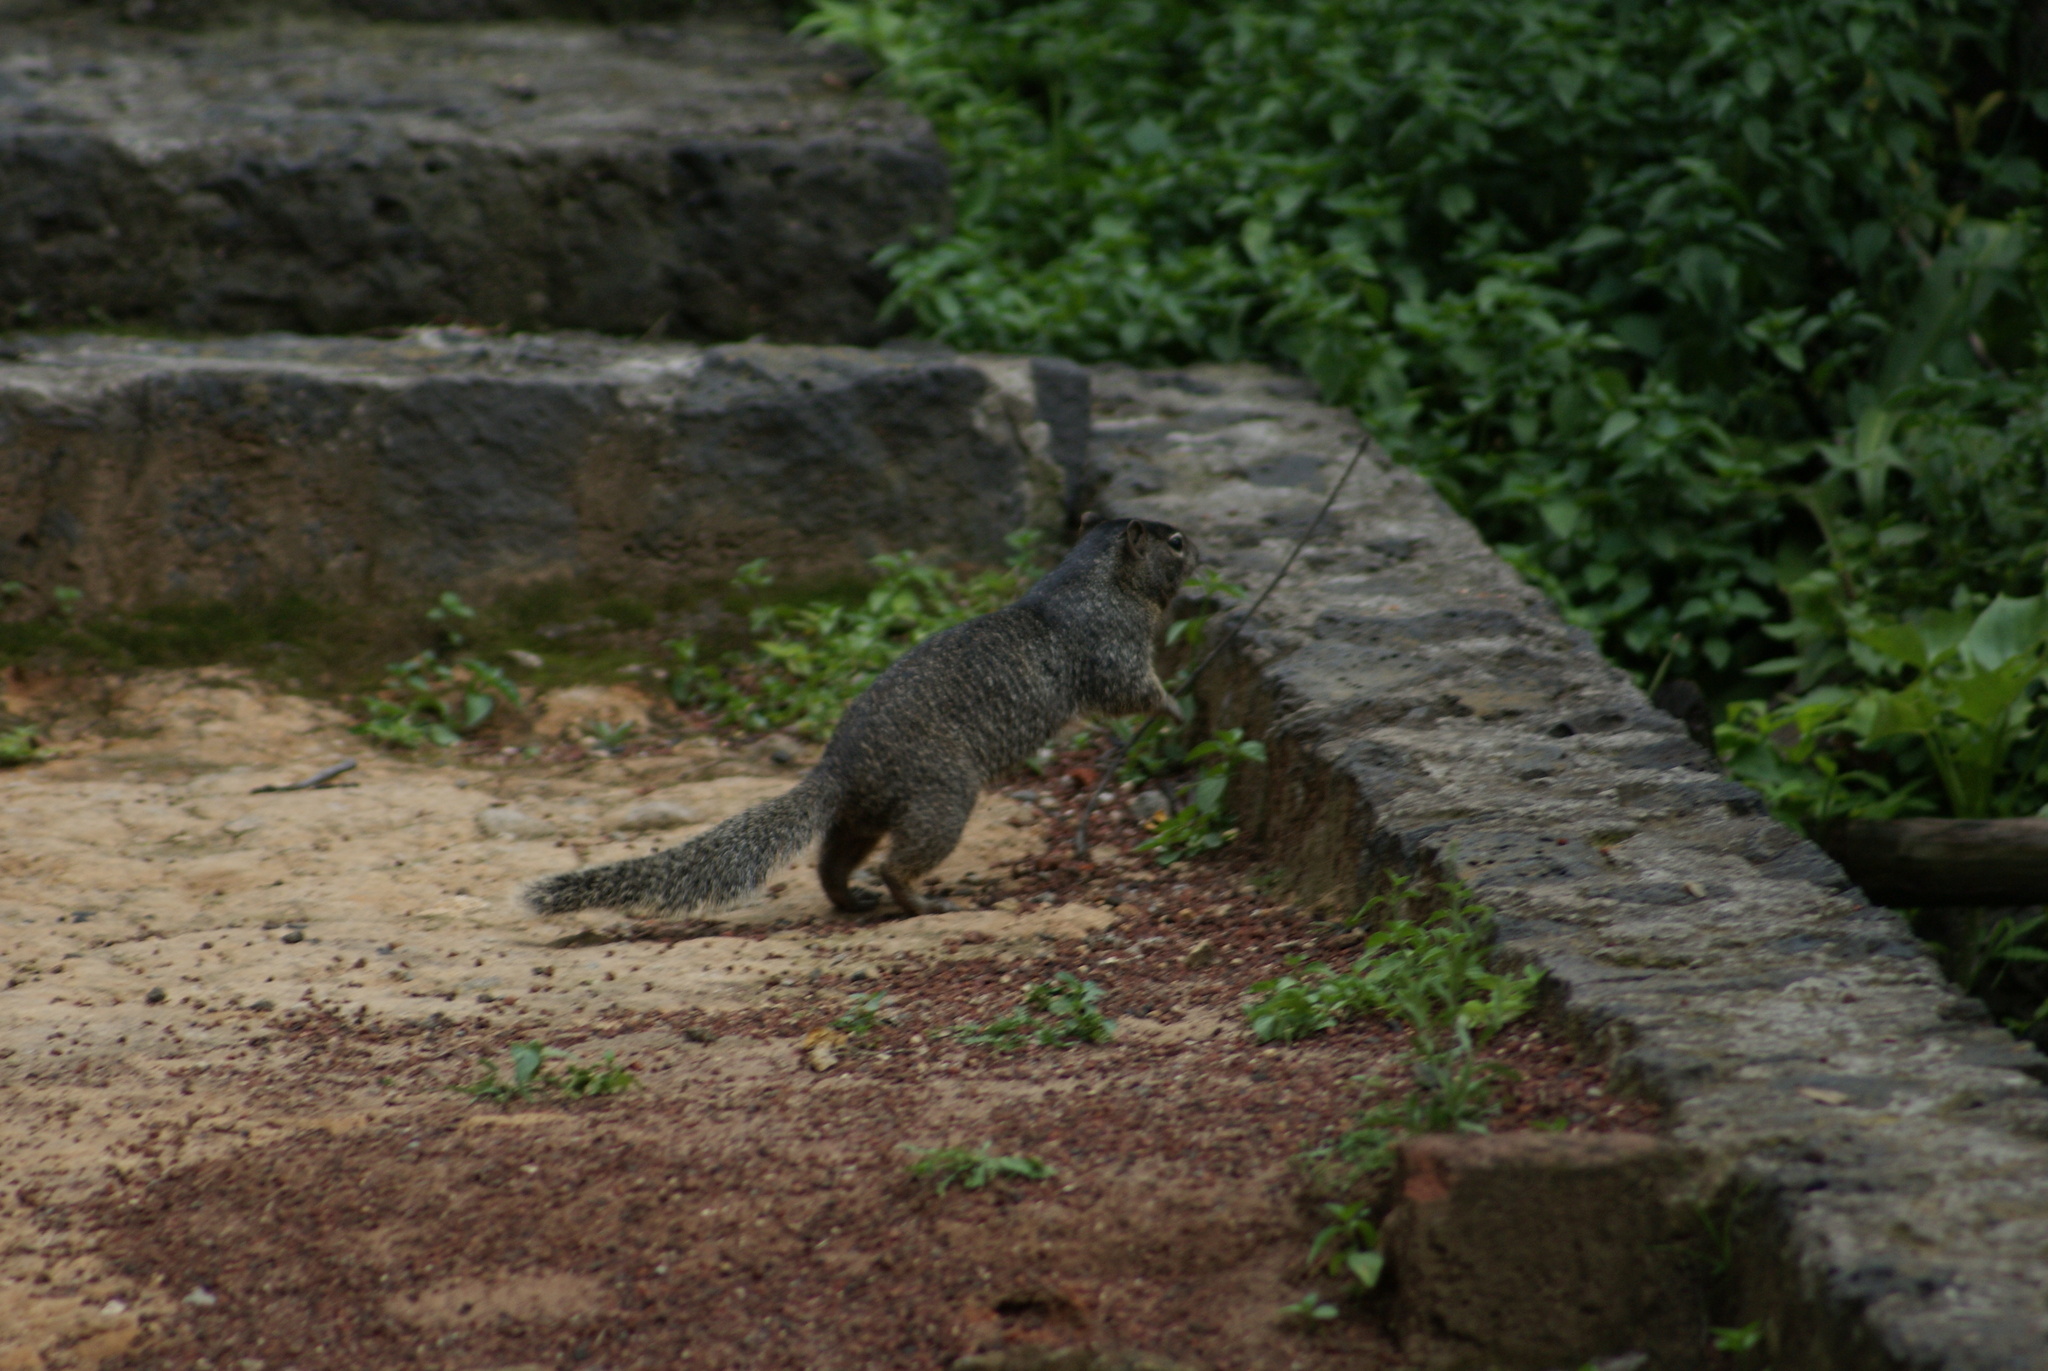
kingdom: Animalia
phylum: Chordata
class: Mammalia
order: Rodentia
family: Sciuridae
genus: Otospermophilus
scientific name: Otospermophilus variegatus
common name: Rock squirrel
